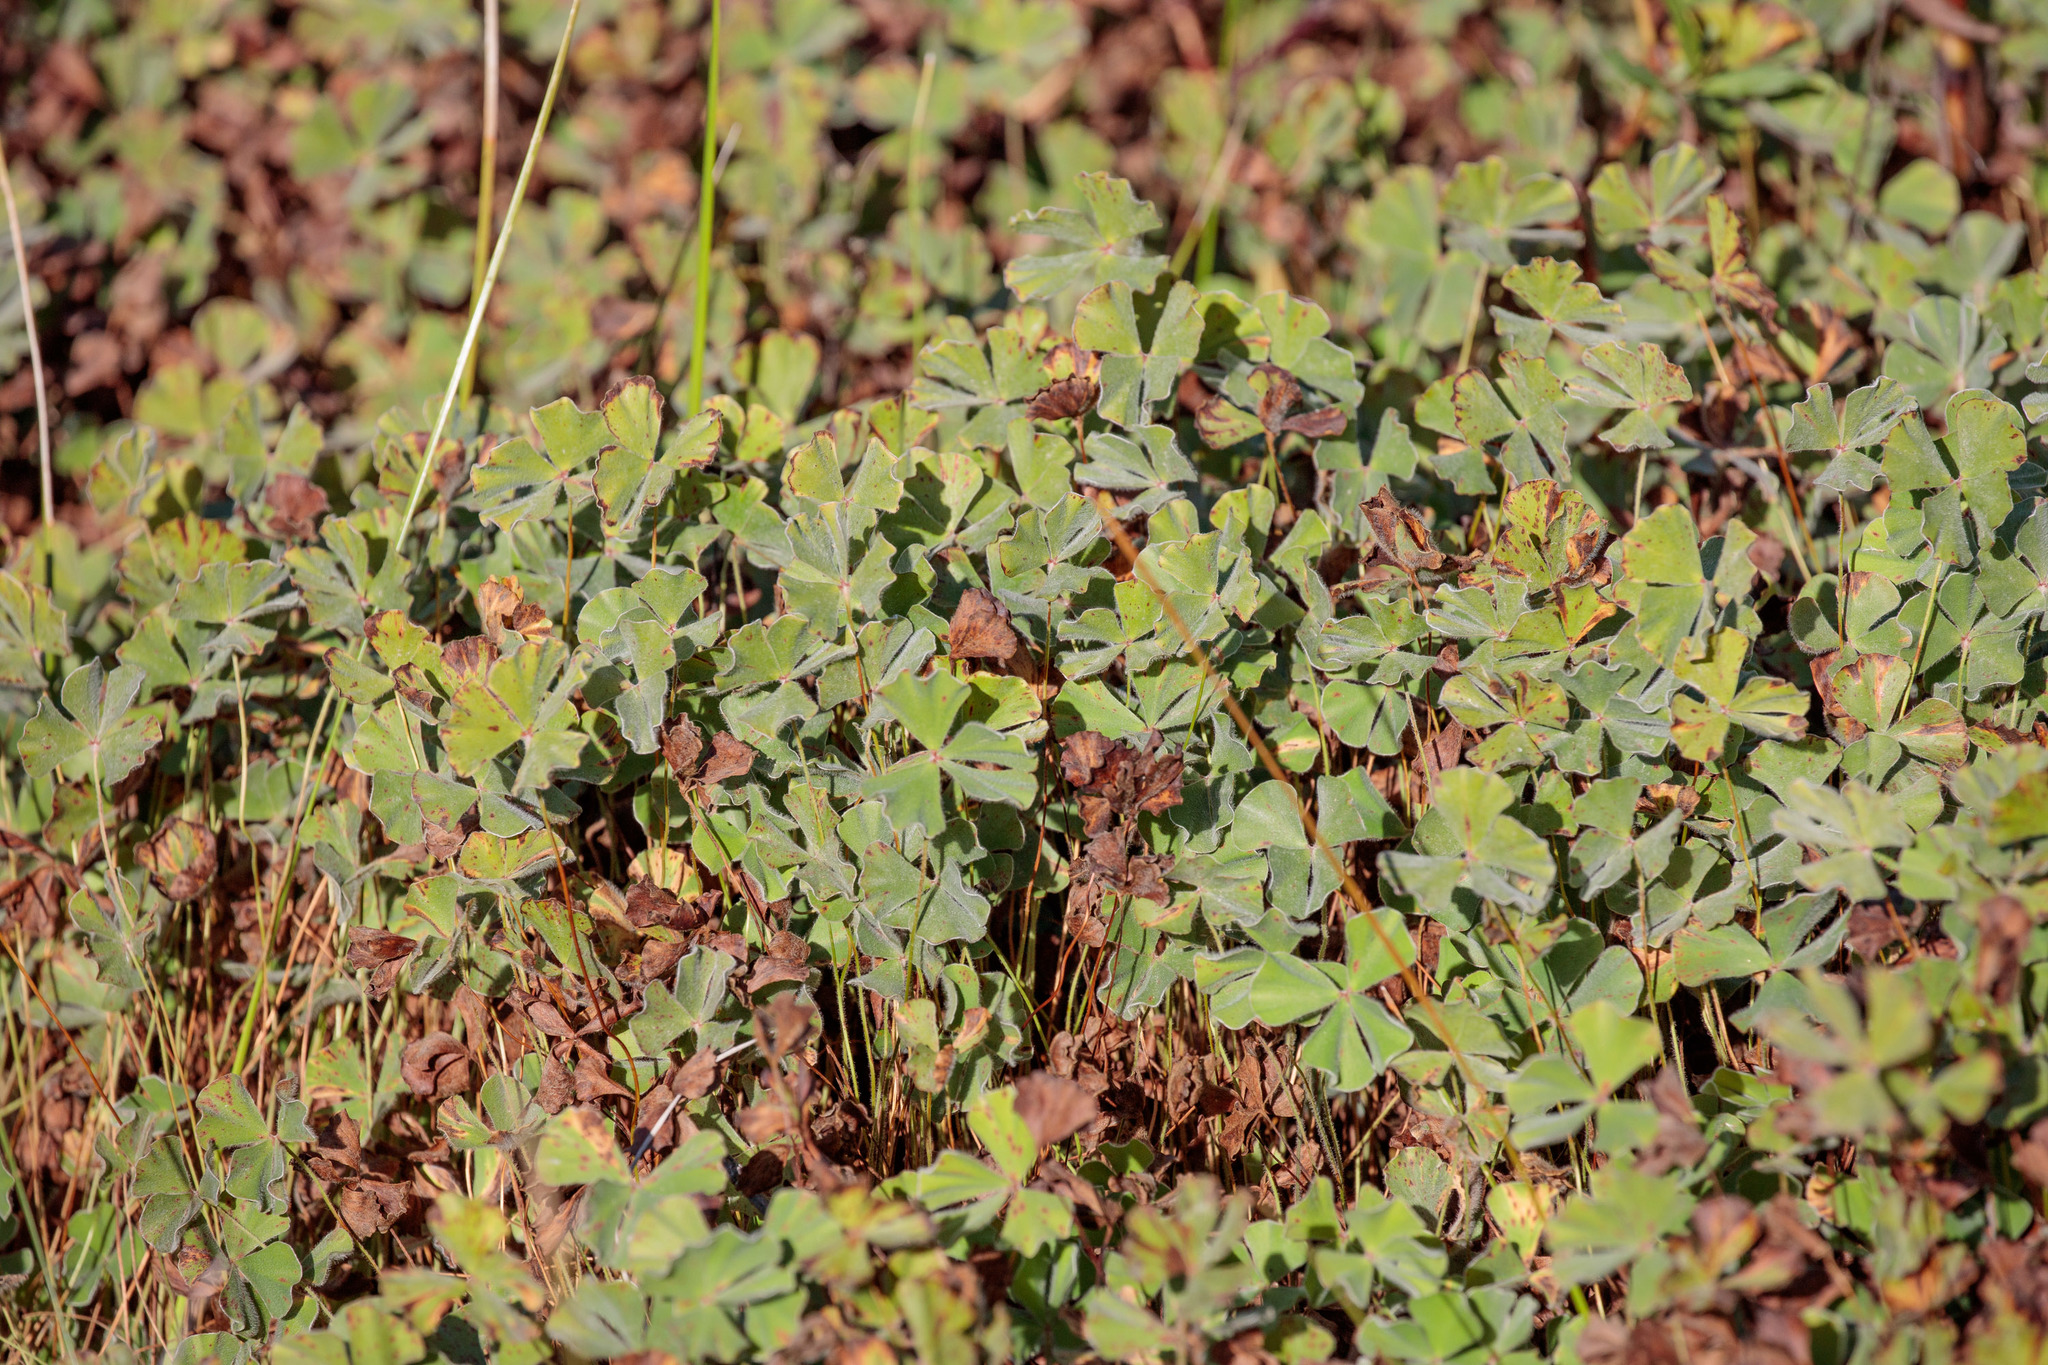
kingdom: Plantae
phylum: Tracheophyta
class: Polypodiopsida
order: Salviniales
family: Marsileaceae
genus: Marsilea
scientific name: Marsilea vestita
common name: Hooked-pepperwort
